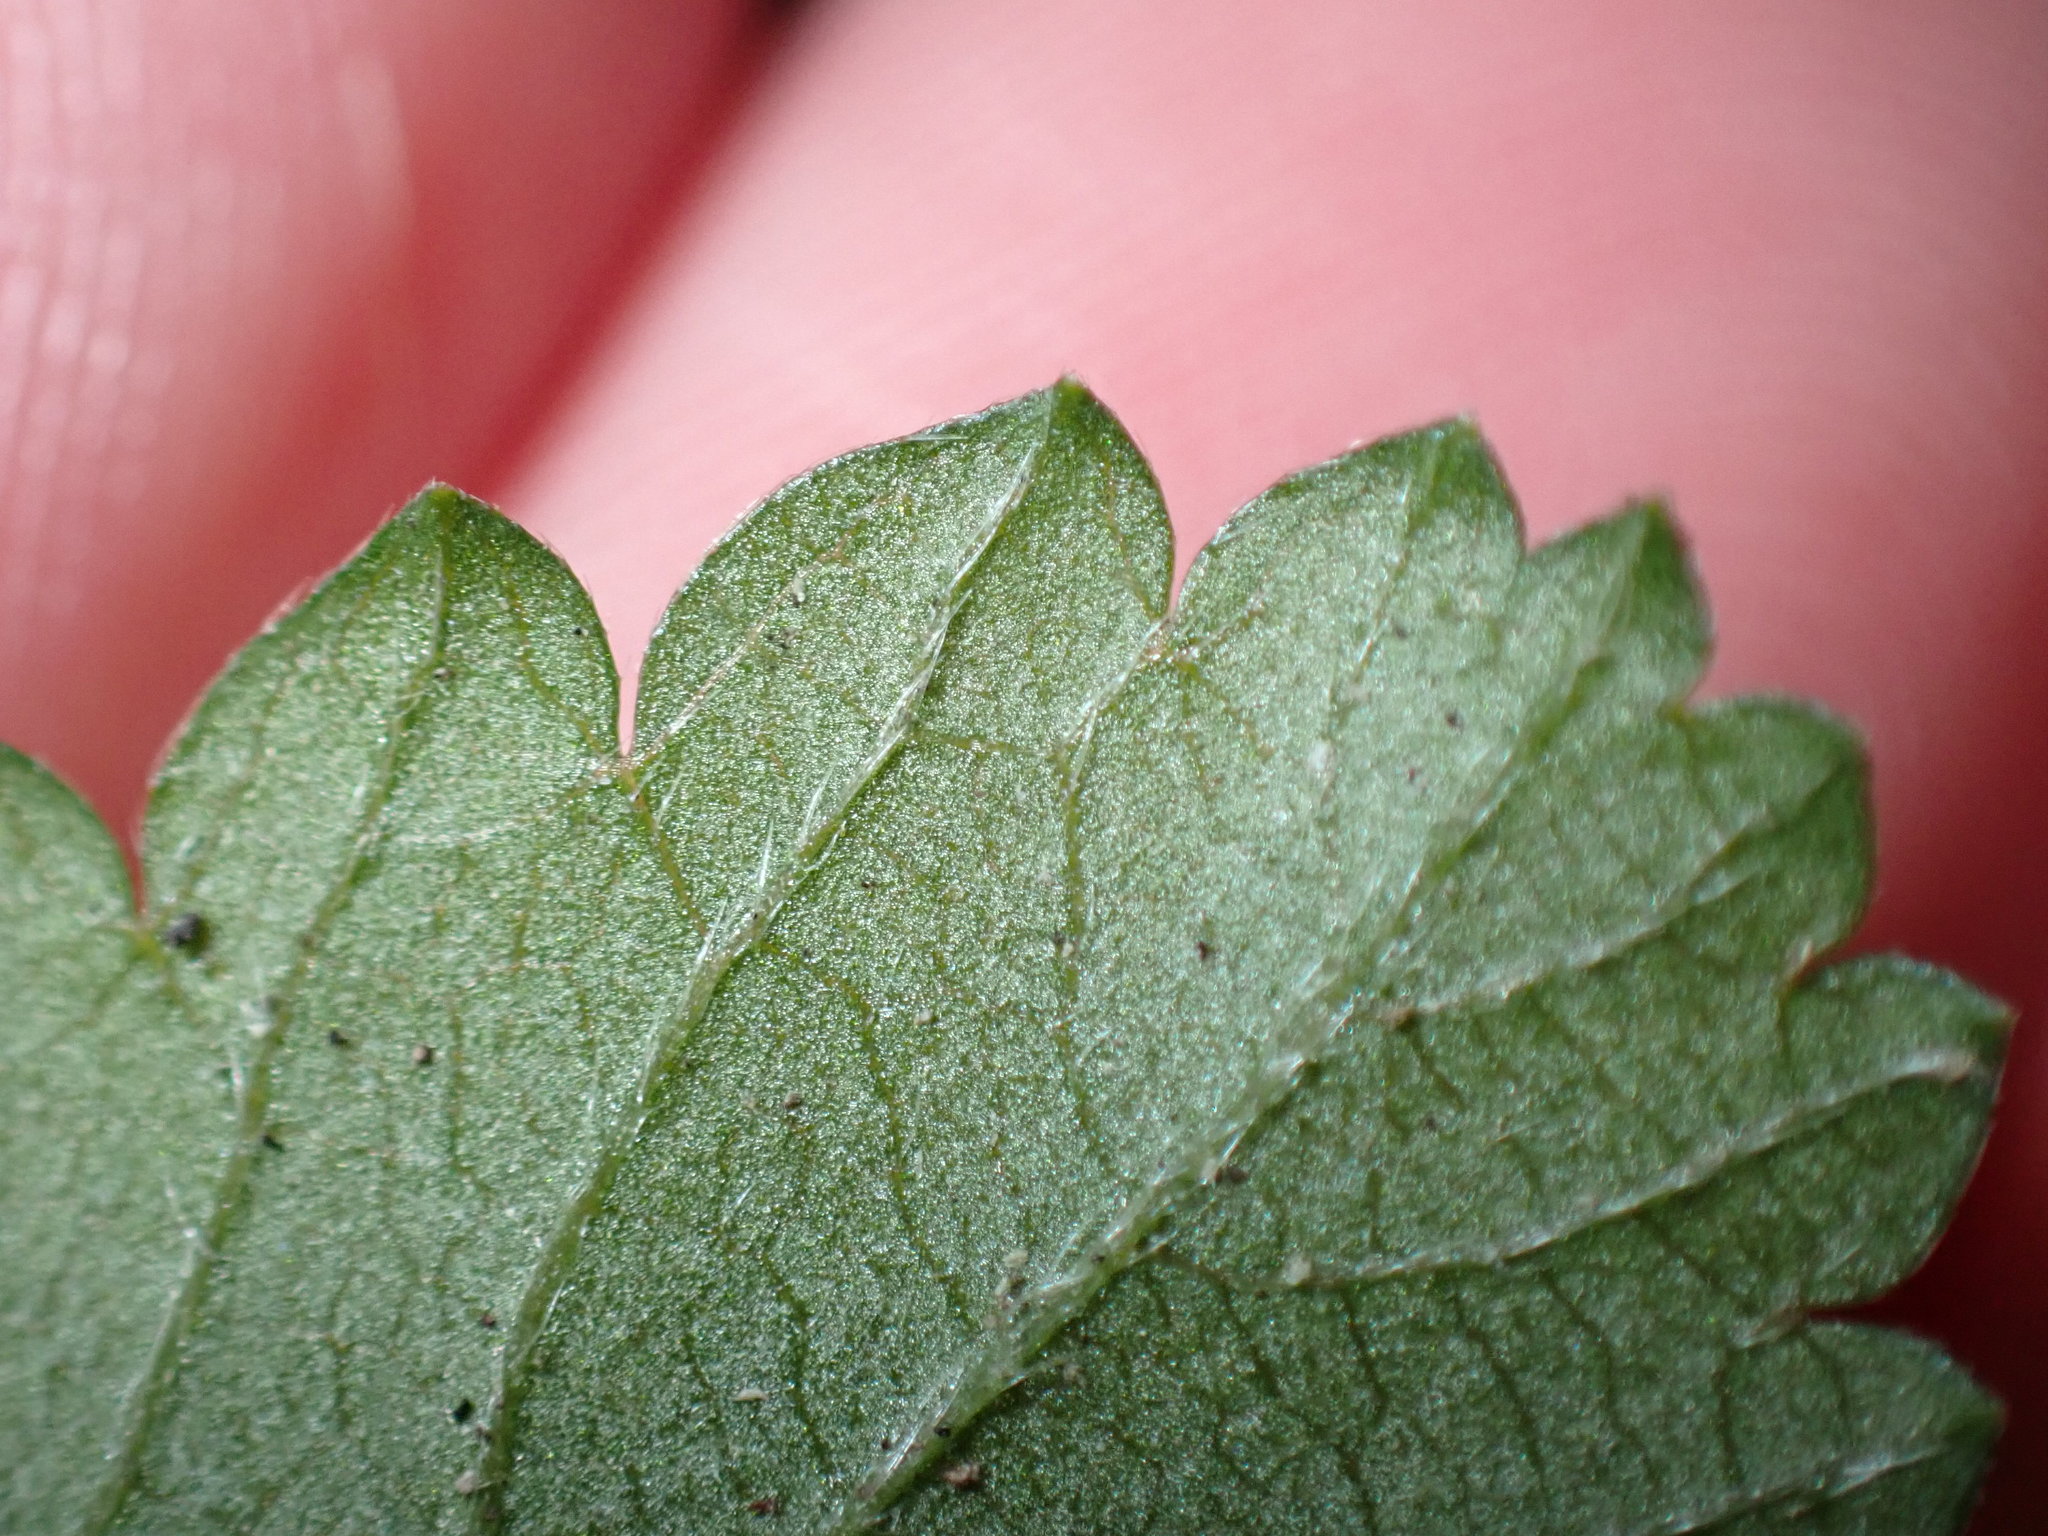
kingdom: Plantae
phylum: Tracheophyta
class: Magnoliopsida
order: Rosales
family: Rosaceae
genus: Potentilla
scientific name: Potentilla indica
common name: Yellow-flowered strawberry
